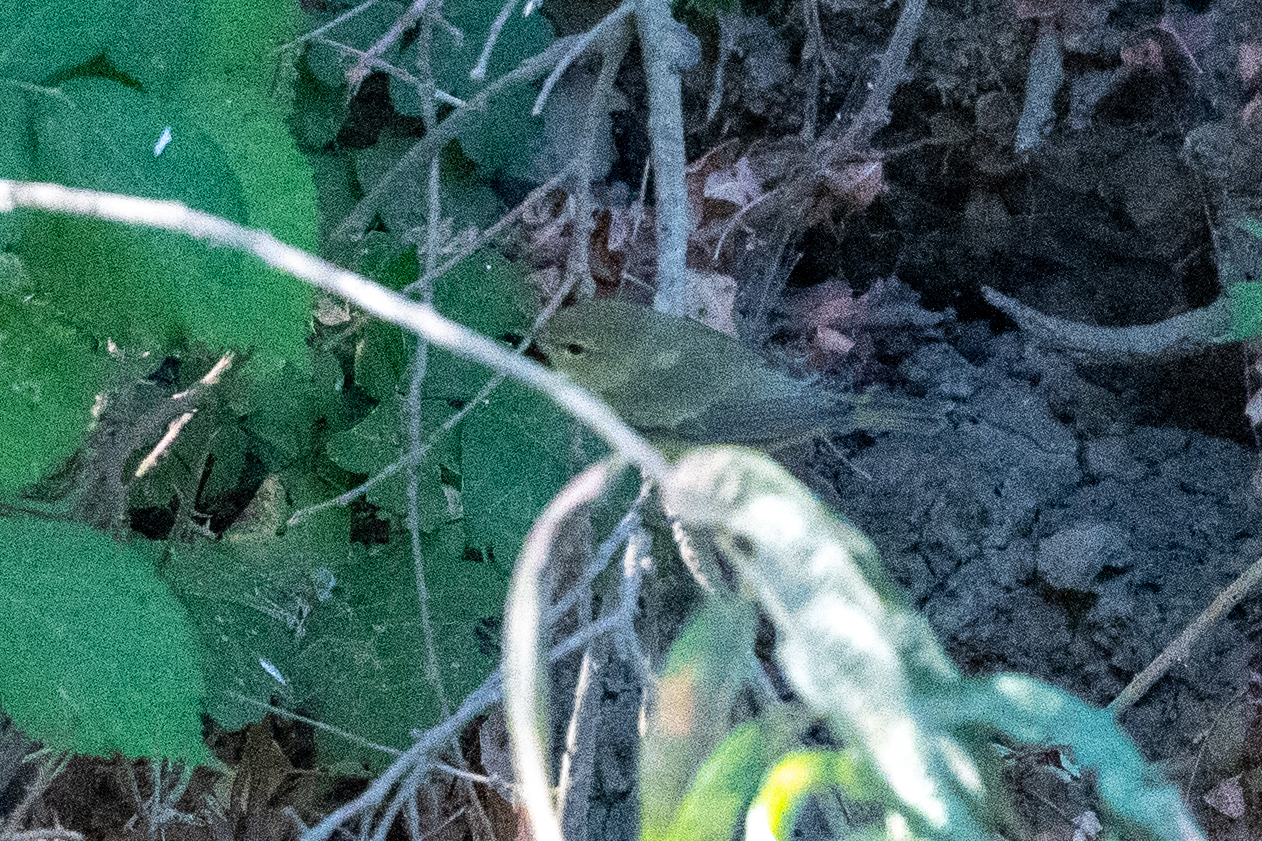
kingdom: Animalia
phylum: Chordata
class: Aves
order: Passeriformes
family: Parulidae
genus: Leiothlypis
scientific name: Leiothlypis celata
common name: Orange-crowned warbler
